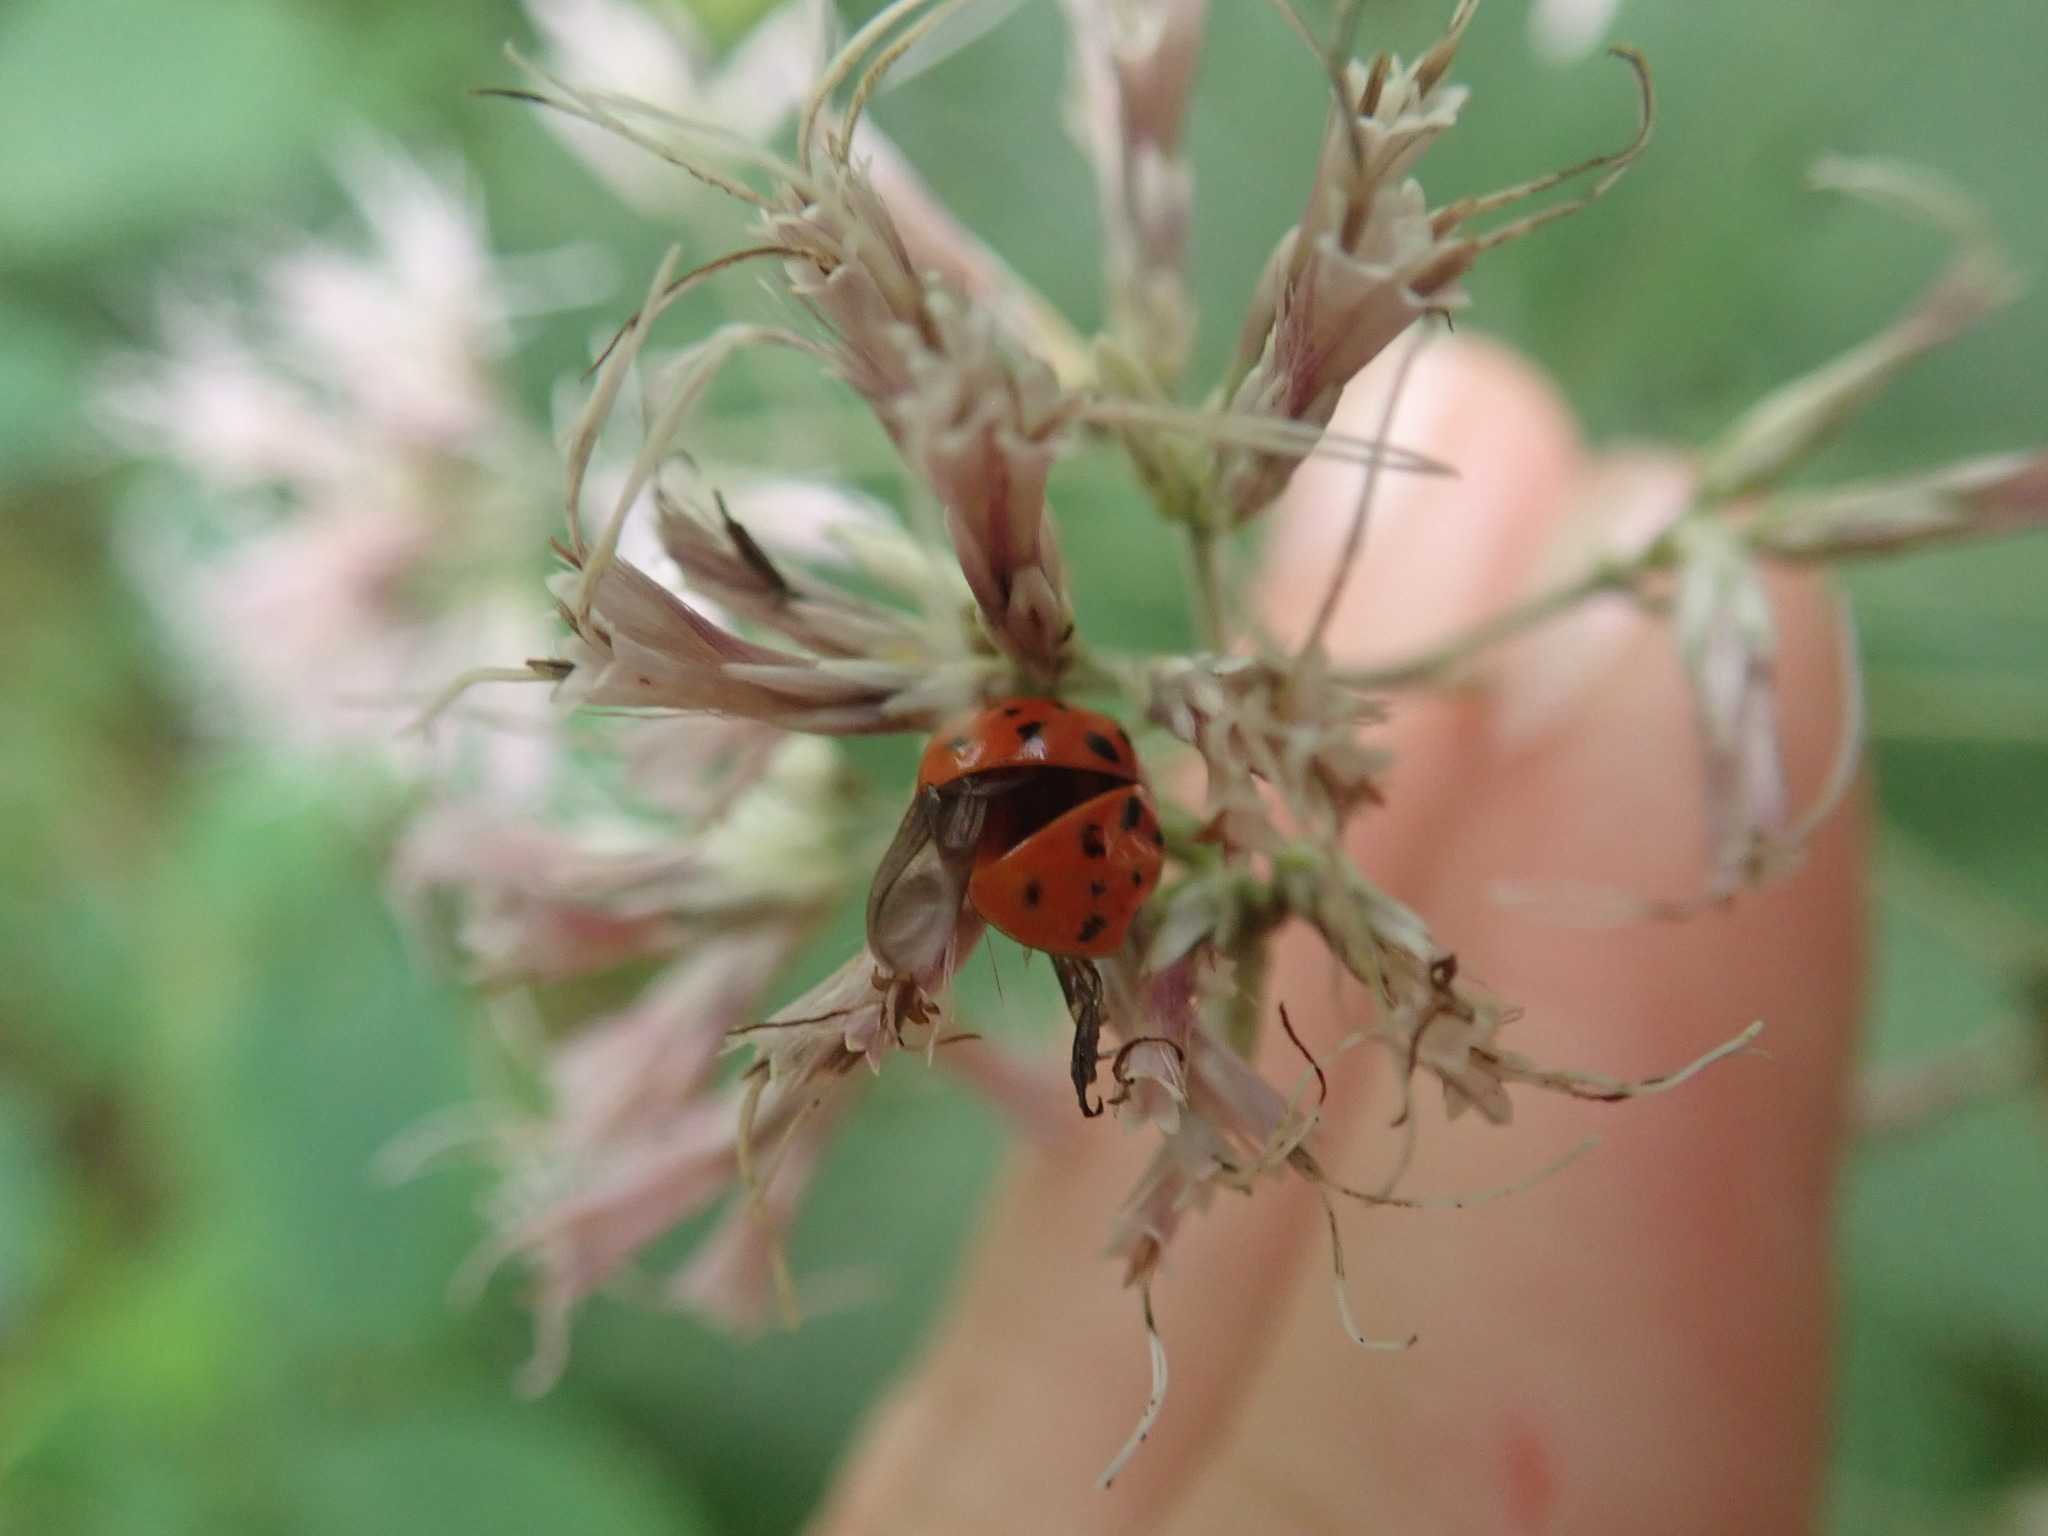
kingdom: Animalia
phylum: Arthropoda
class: Insecta
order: Coleoptera
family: Coccinellidae
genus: Harmonia
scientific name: Harmonia axyridis
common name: Harlequin ladybird
